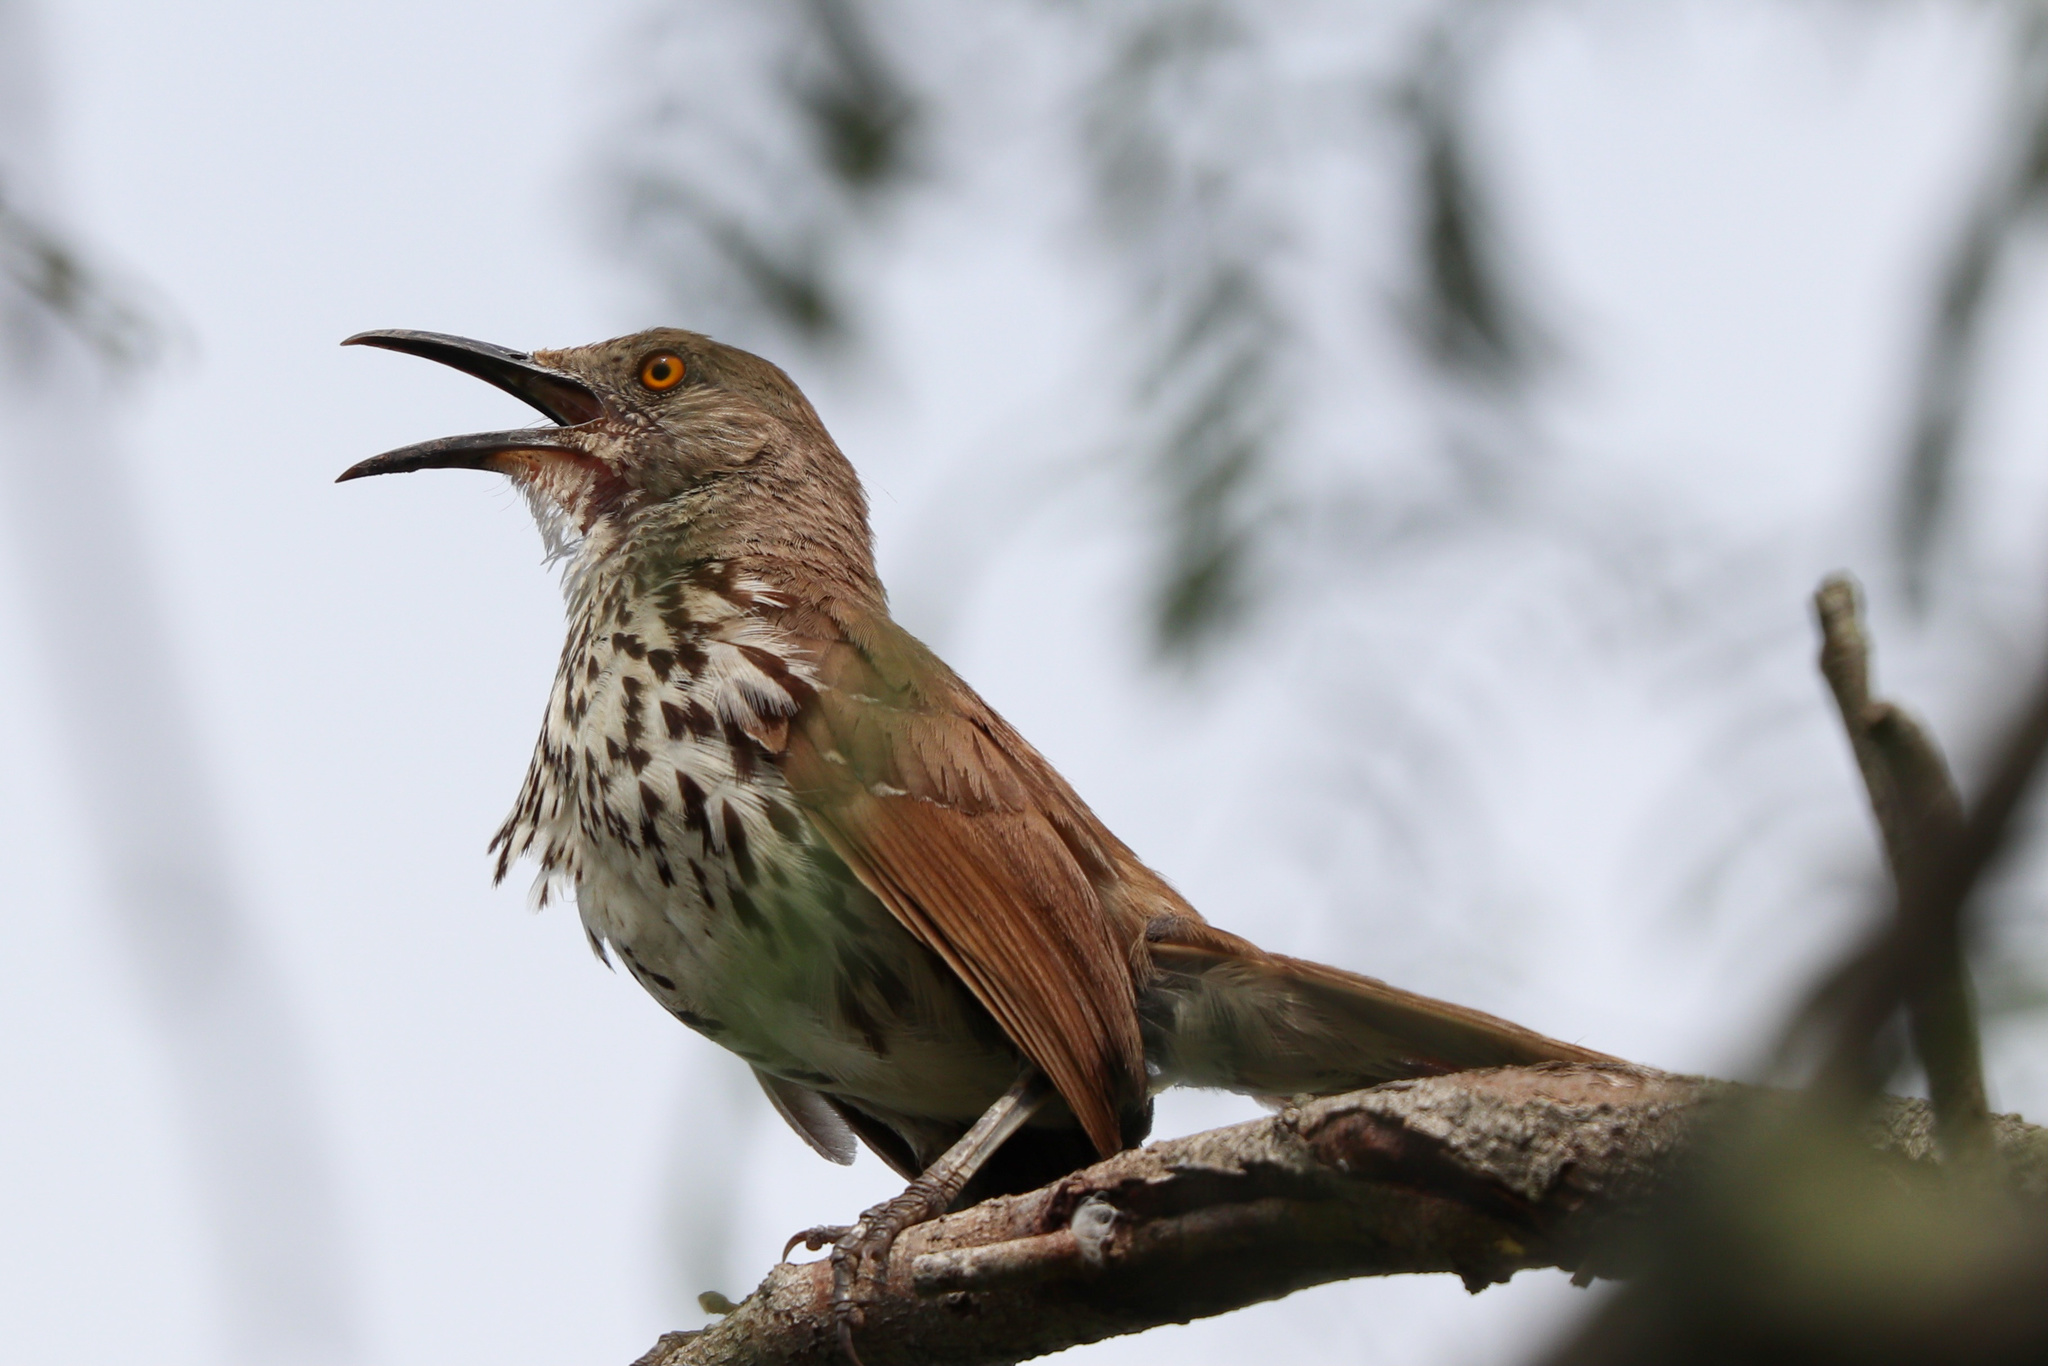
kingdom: Animalia
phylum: Chordata
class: Aves
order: Passeriformes
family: Mimidae
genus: Toxostoma
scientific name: Toxostoma longirostre
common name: Long-billed thrasher
